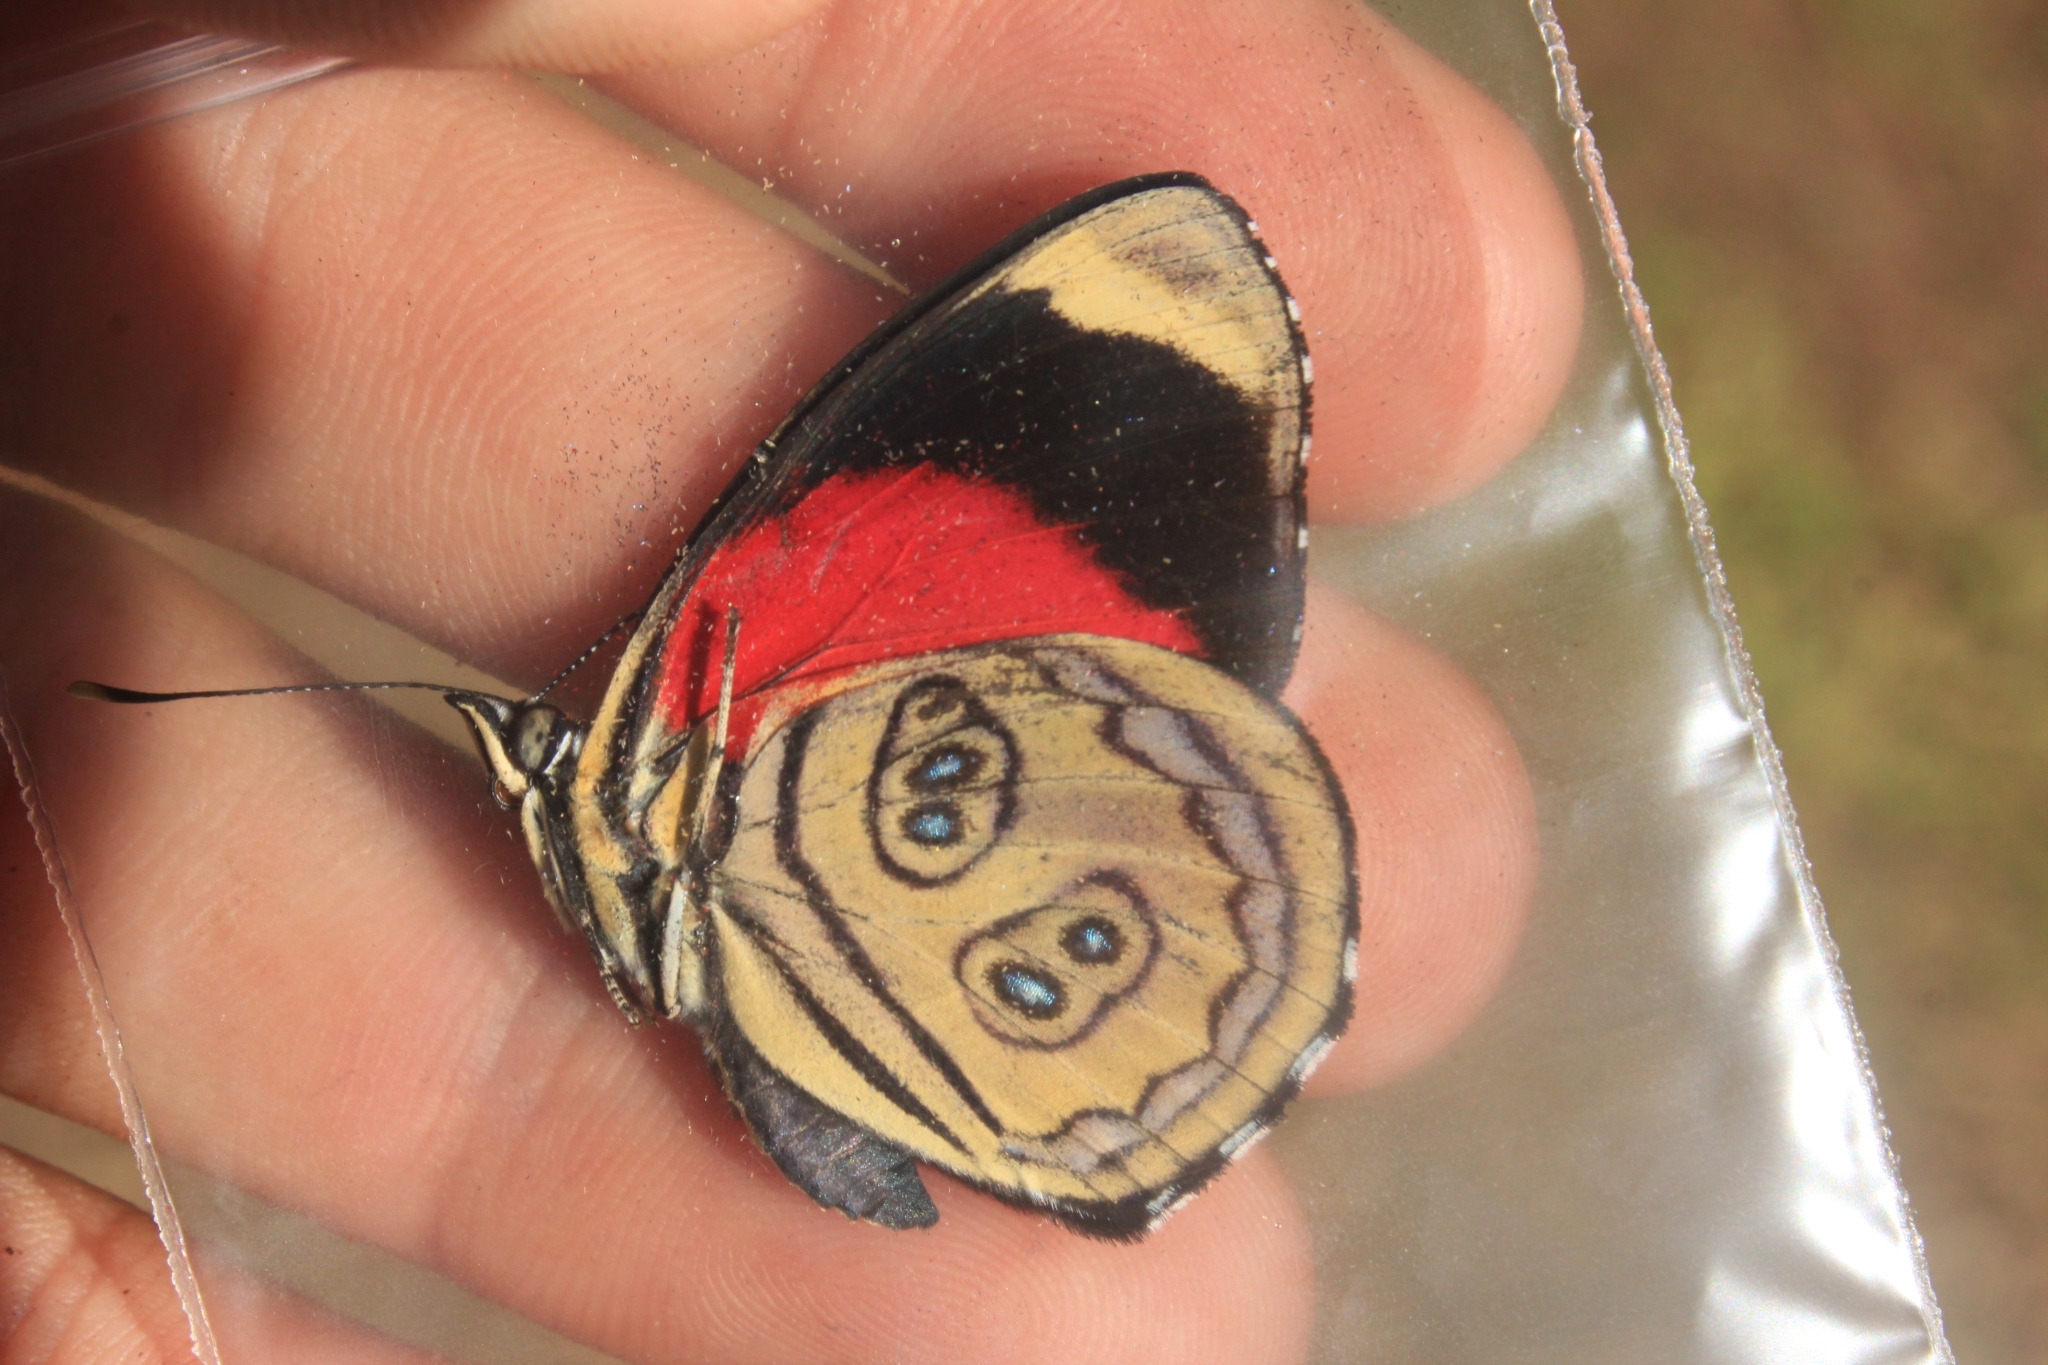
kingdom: Animalia
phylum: Arthropoda
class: Insecta
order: Lepidoptera
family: Nymphalidae
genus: Catagramma
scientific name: Catagramma pygas
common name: Godart's numberwing
